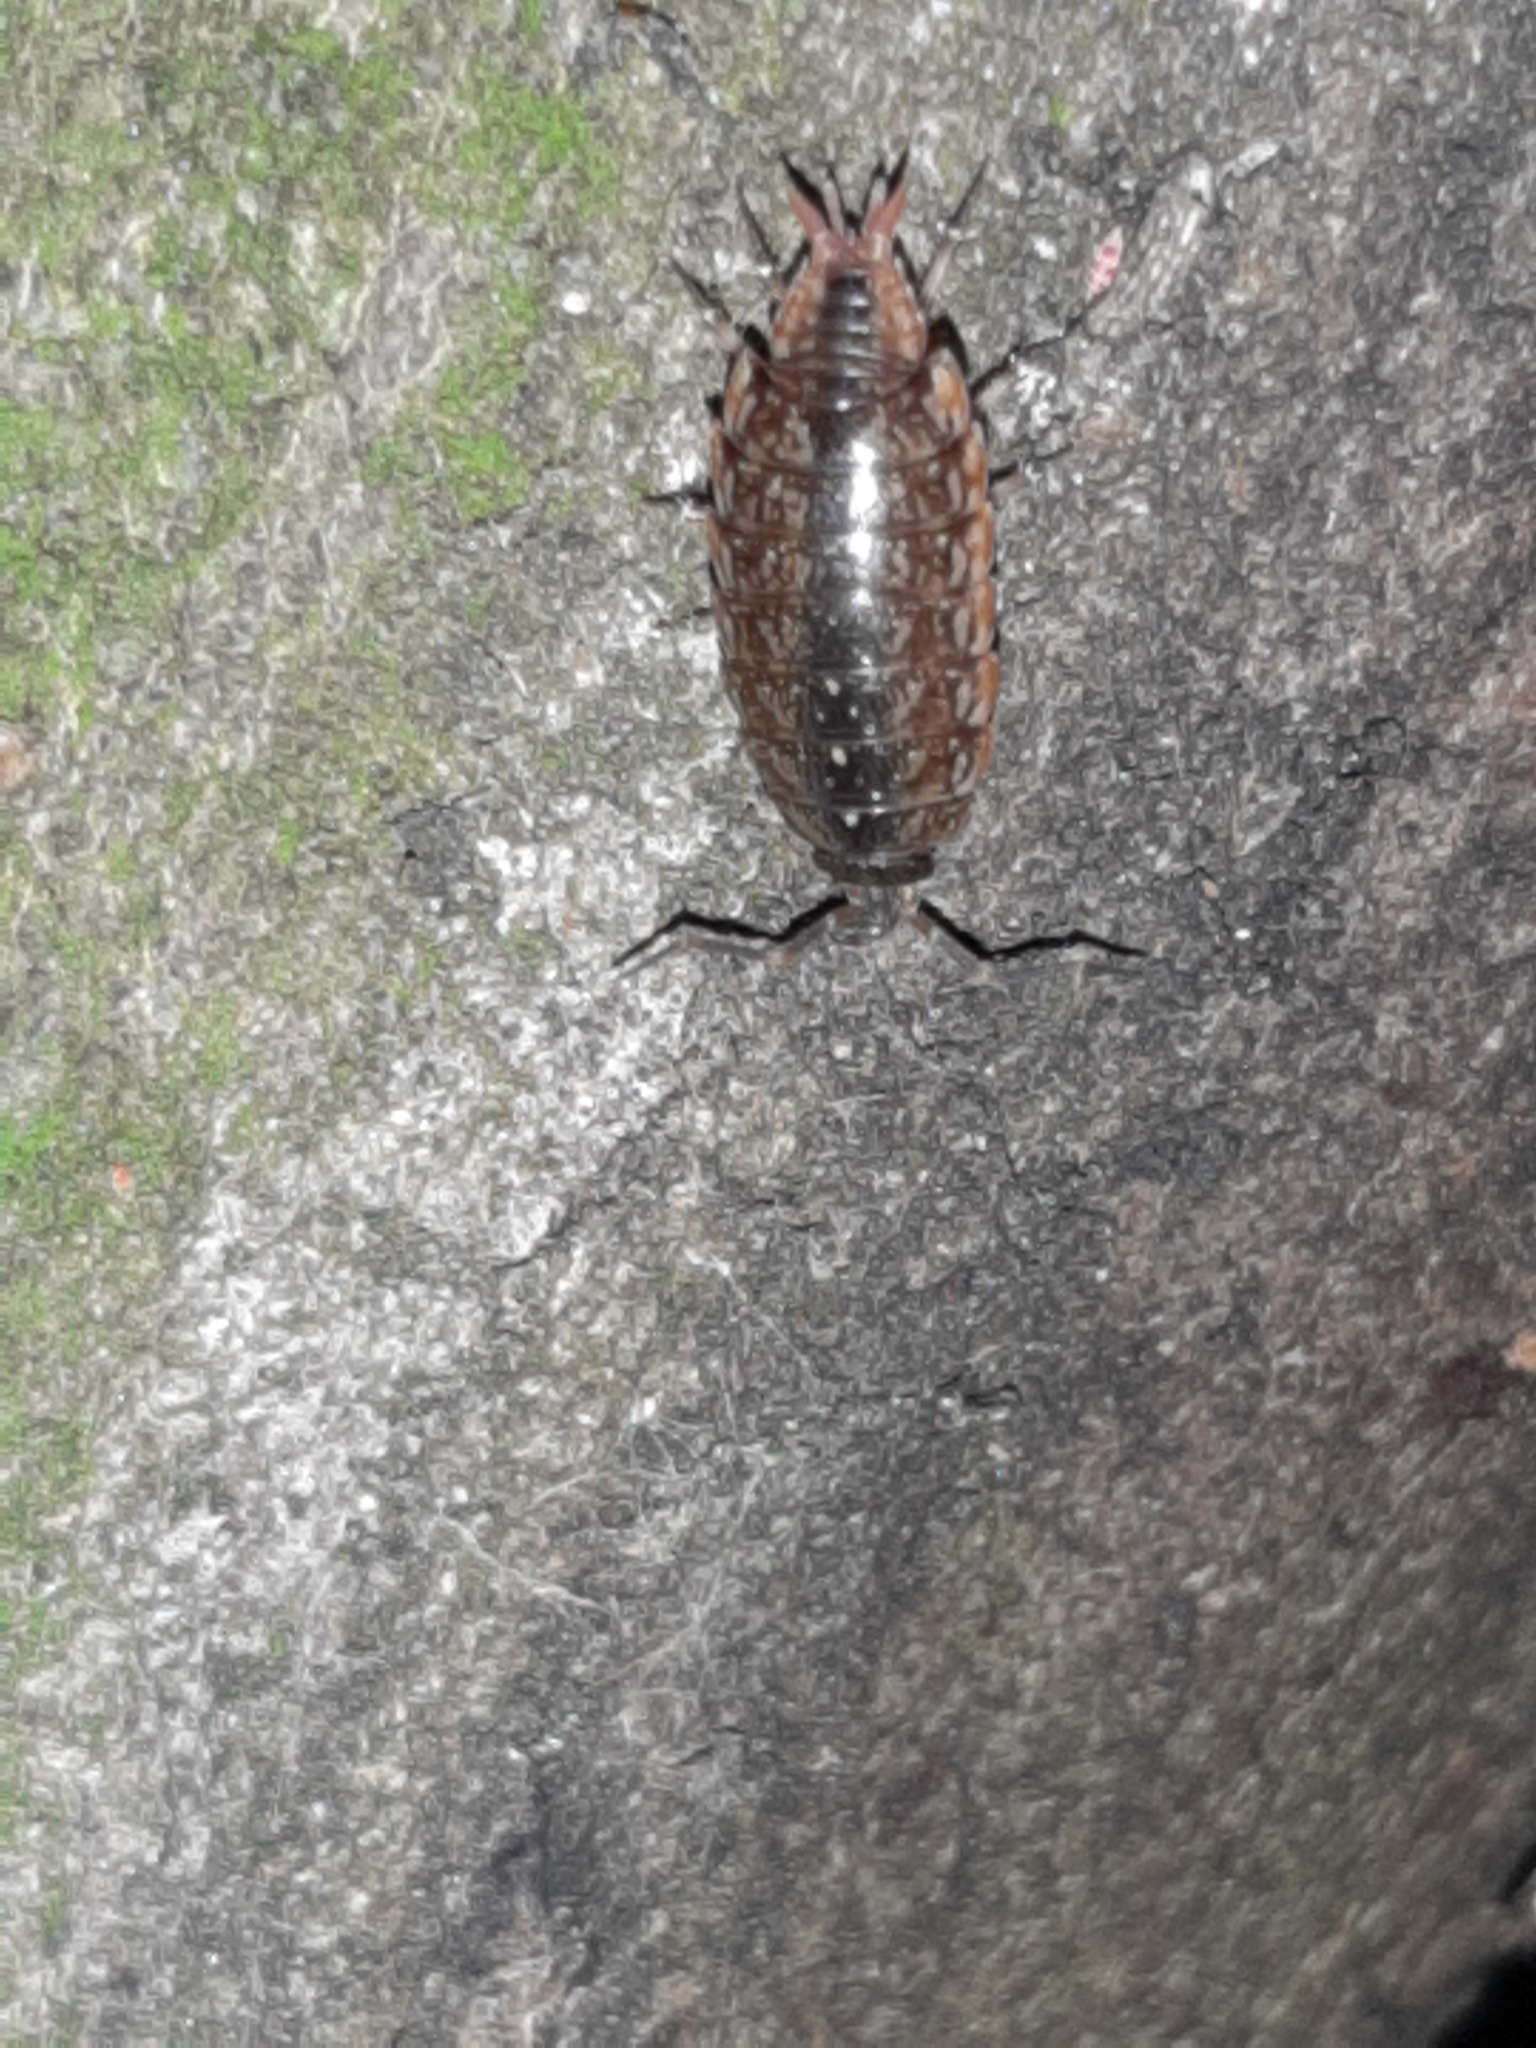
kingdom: Animalia
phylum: Arthropoda
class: Malacostraca
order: Isopoda
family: Philosciidae
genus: Philoscia
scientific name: Philoscia affinis
